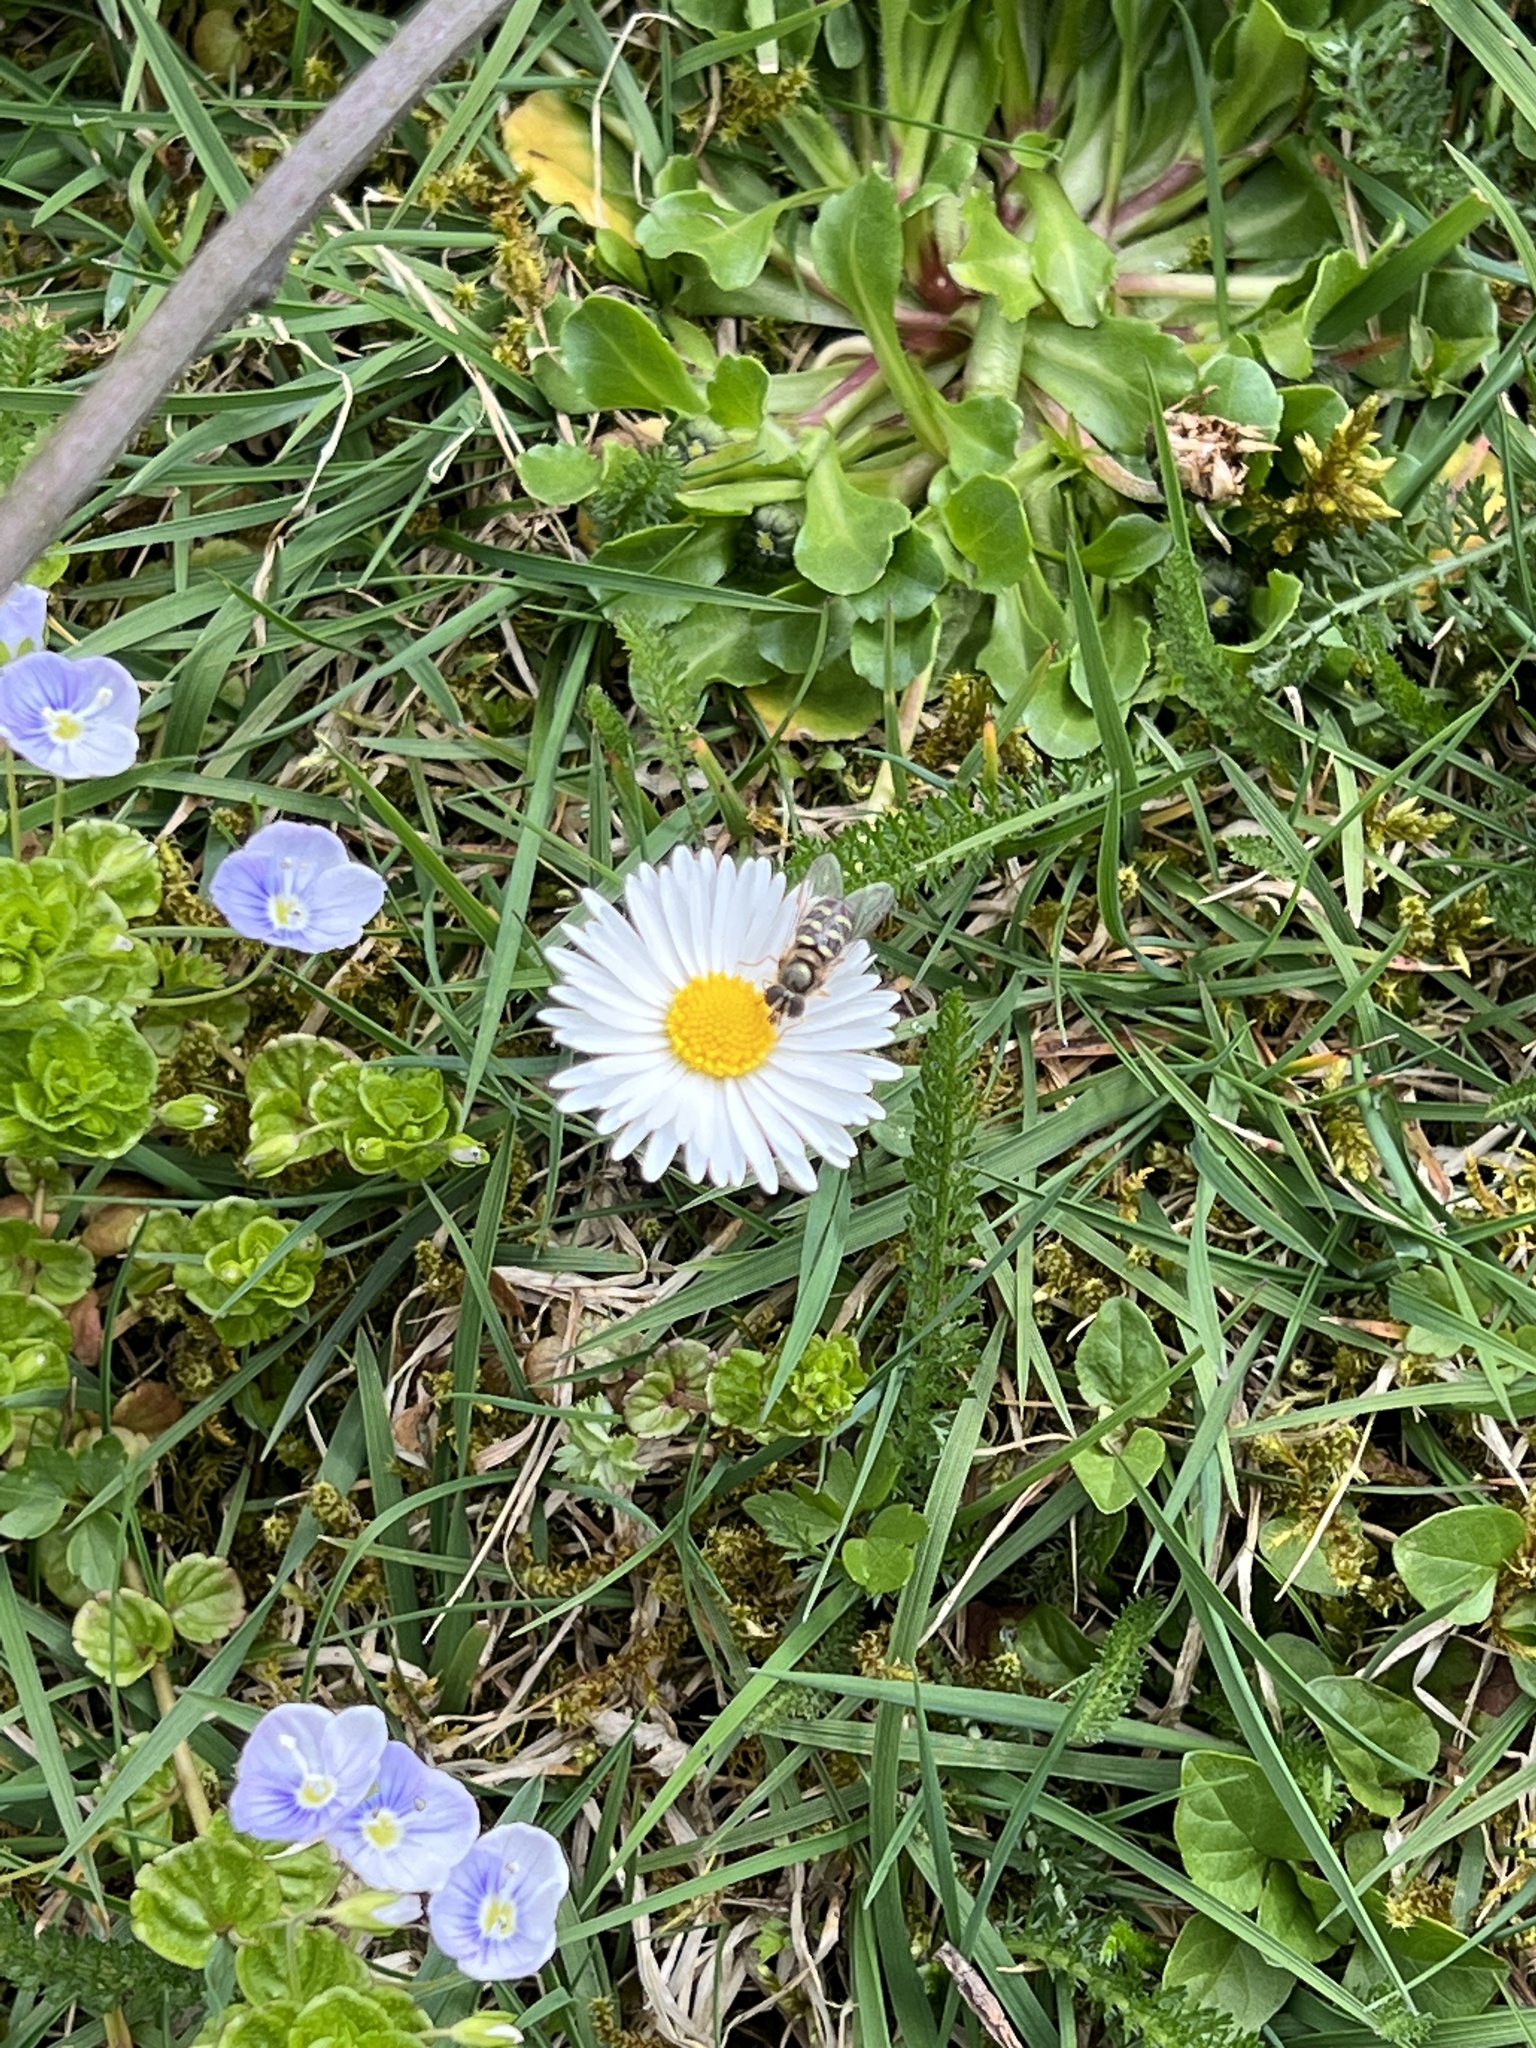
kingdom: Plantae
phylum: Tracheophyta
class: Magnoliopsida
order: Asterales
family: Asteraceae
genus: Bellis
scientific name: Bellis perennis
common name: Lawndaisy
